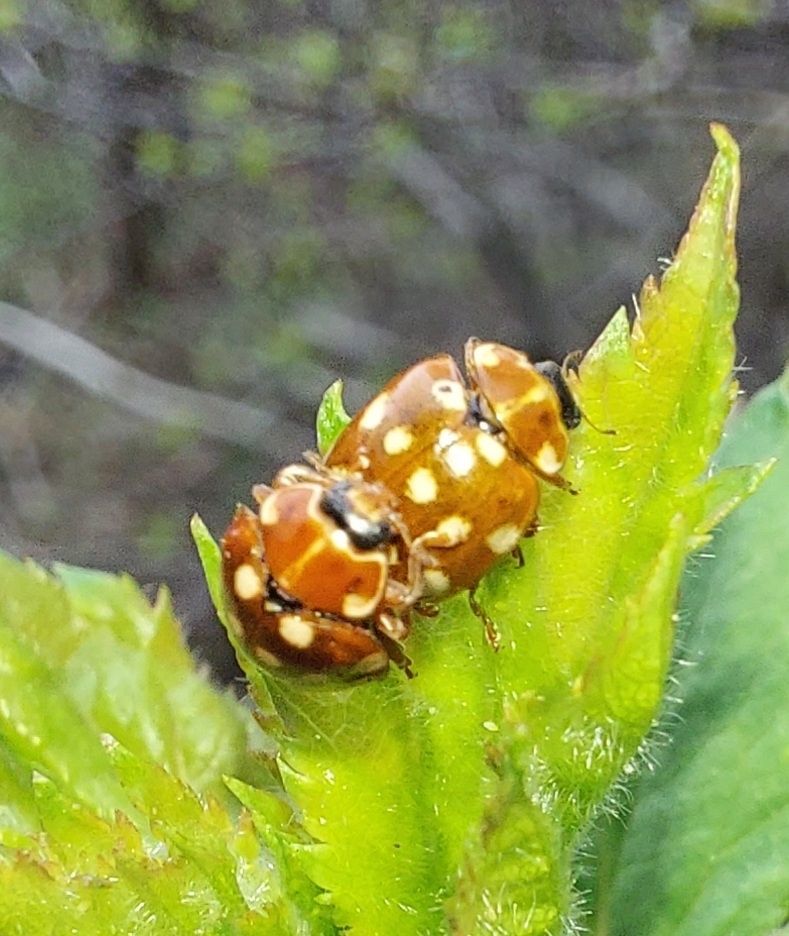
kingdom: Animalia
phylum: Arthropoda
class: Insecta
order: Coleoptera
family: Coccinellidae
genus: Calvia
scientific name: Calvia quatuordecimguttata
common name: Cream-spot ladybird
